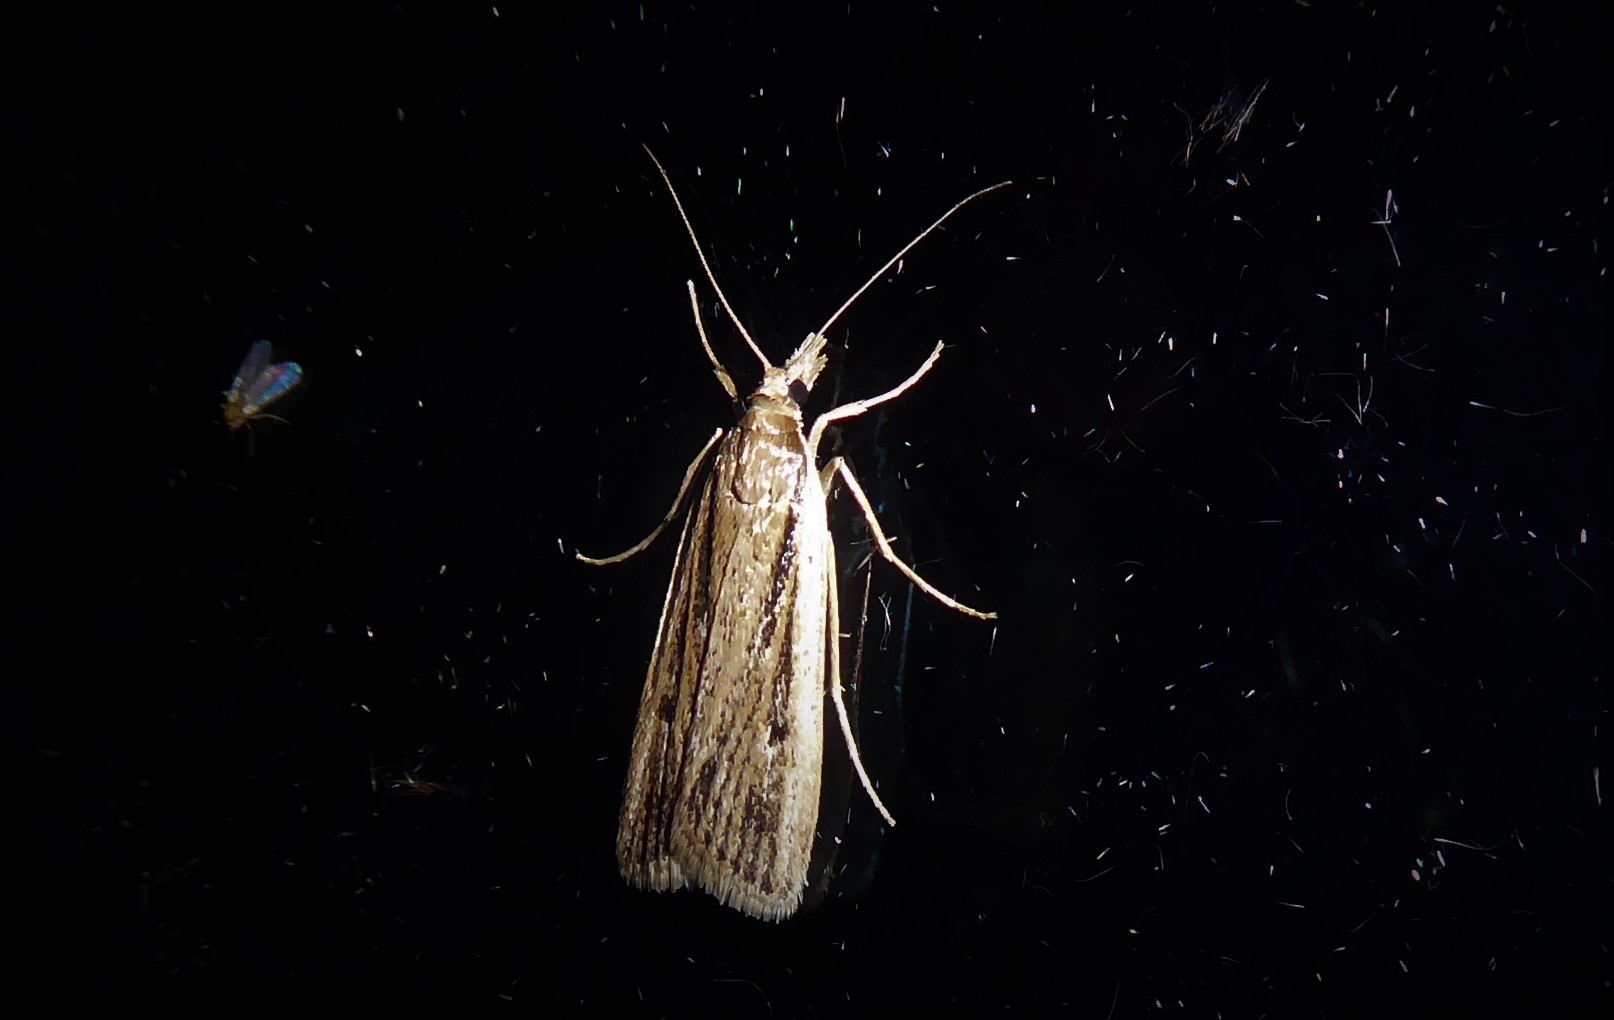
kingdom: Animalia
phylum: Arthropoda
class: Insecta
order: Lepidoptera
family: Crambidae
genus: Eudonia
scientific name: Eudonia sabulosella
